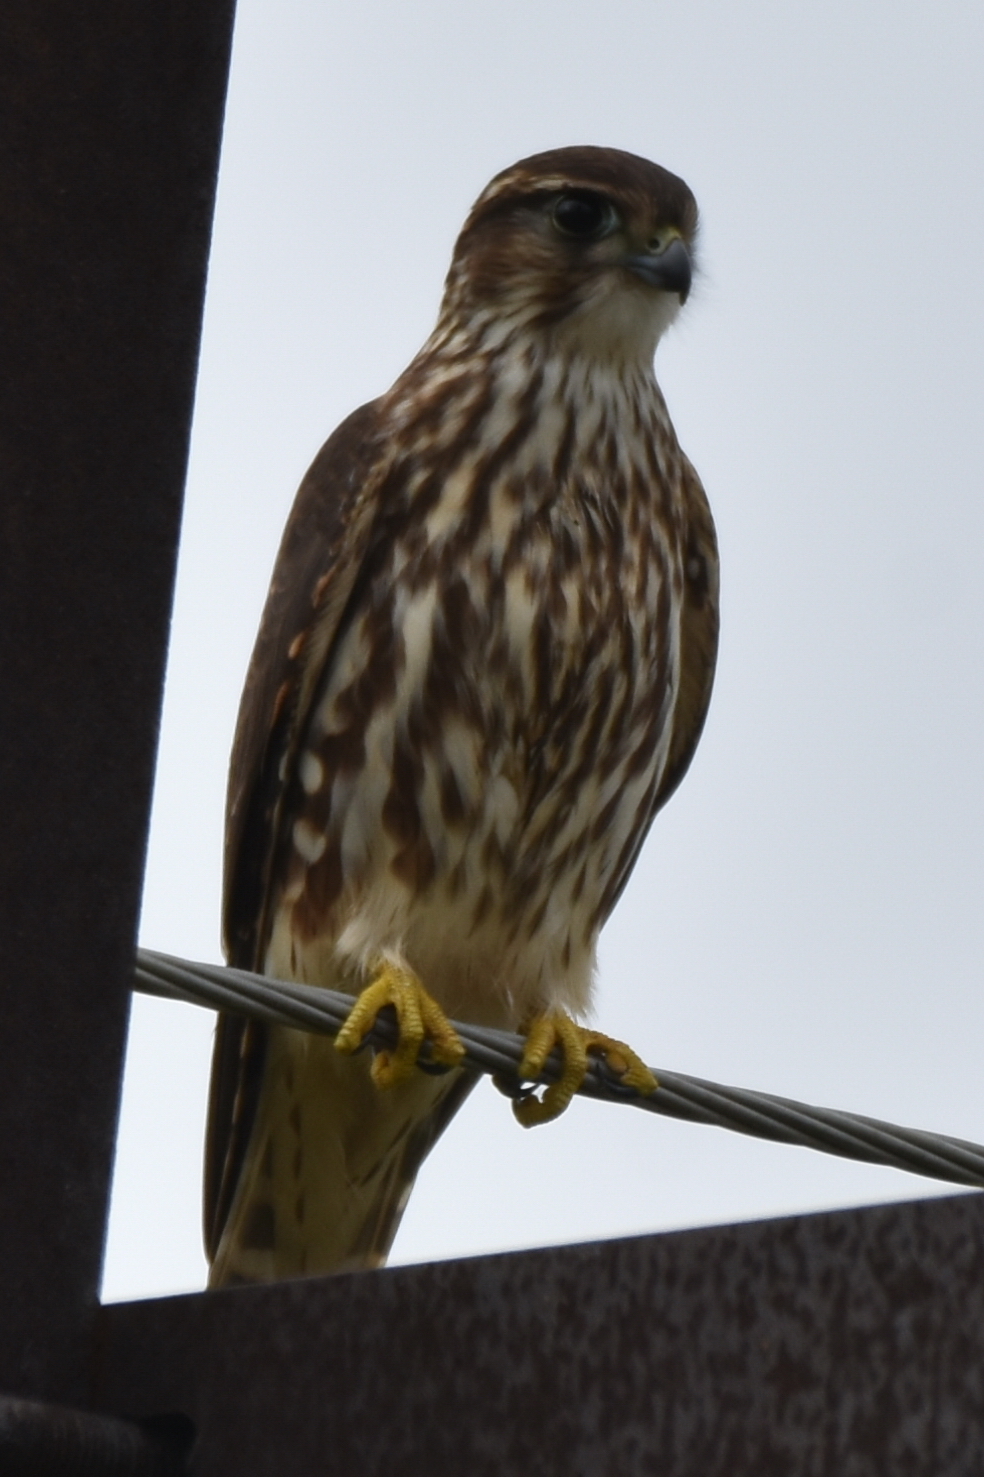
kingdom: Animalia
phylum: Chordata
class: Aves
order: Falconiformes
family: Falconidae
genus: Falco
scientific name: Falco columbarius
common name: Merlin
